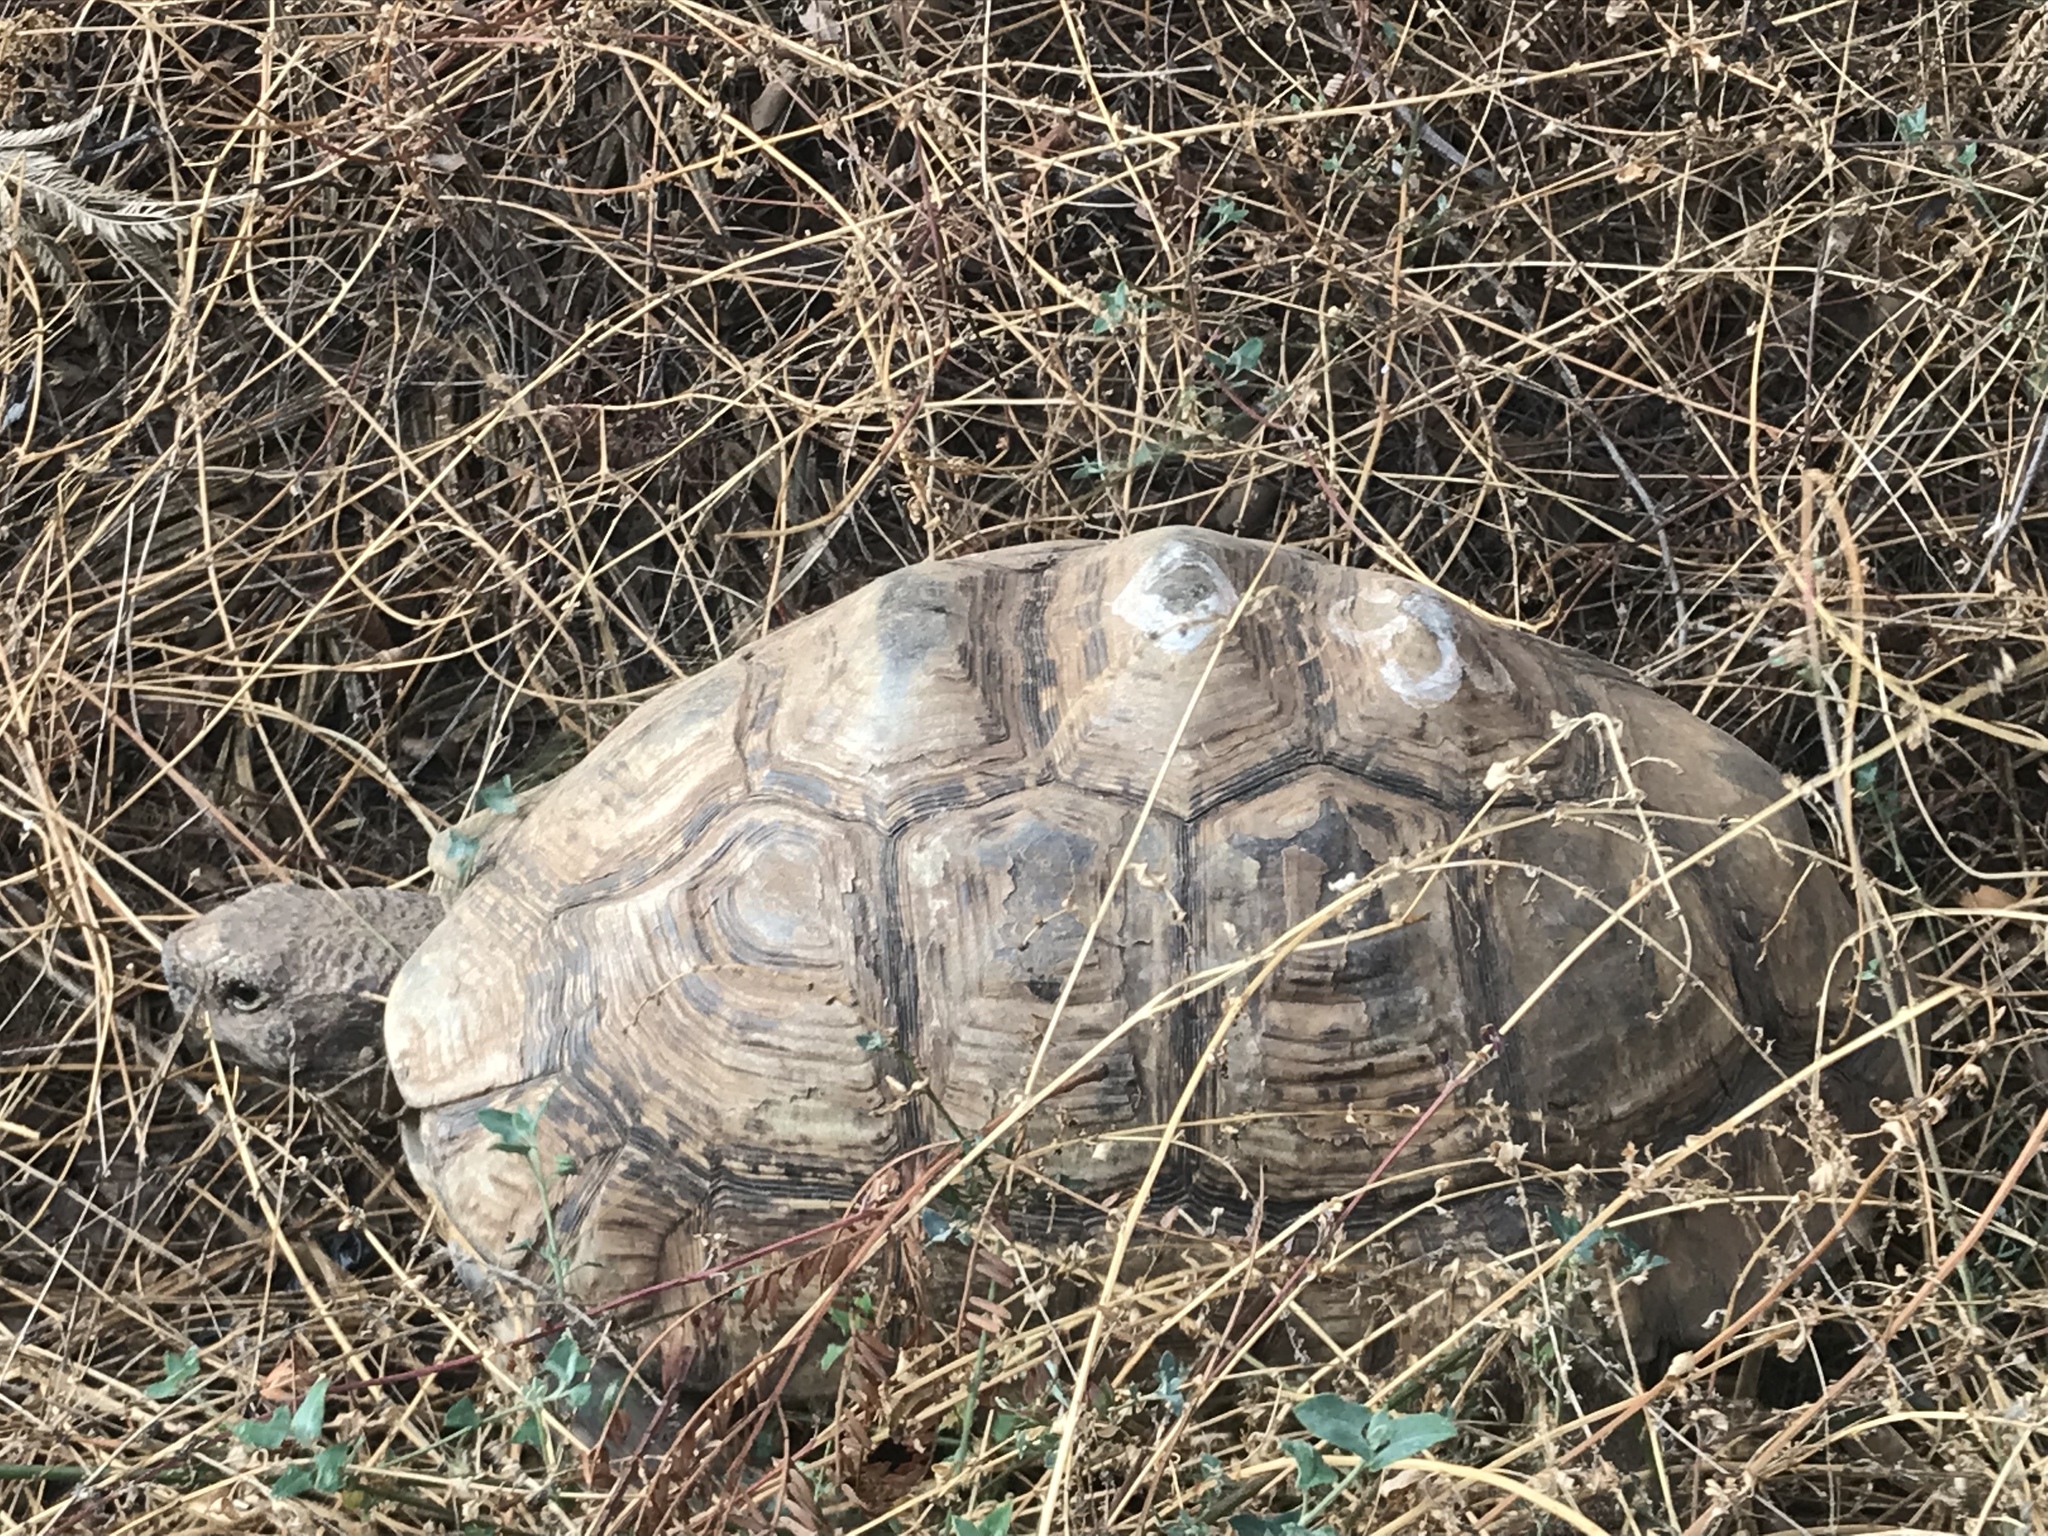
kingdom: Animalia
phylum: Chordata
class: Testudines
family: Testudinidae
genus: Stigmochelys
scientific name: Stigmochelys pardalis
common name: Leopard tortoise
